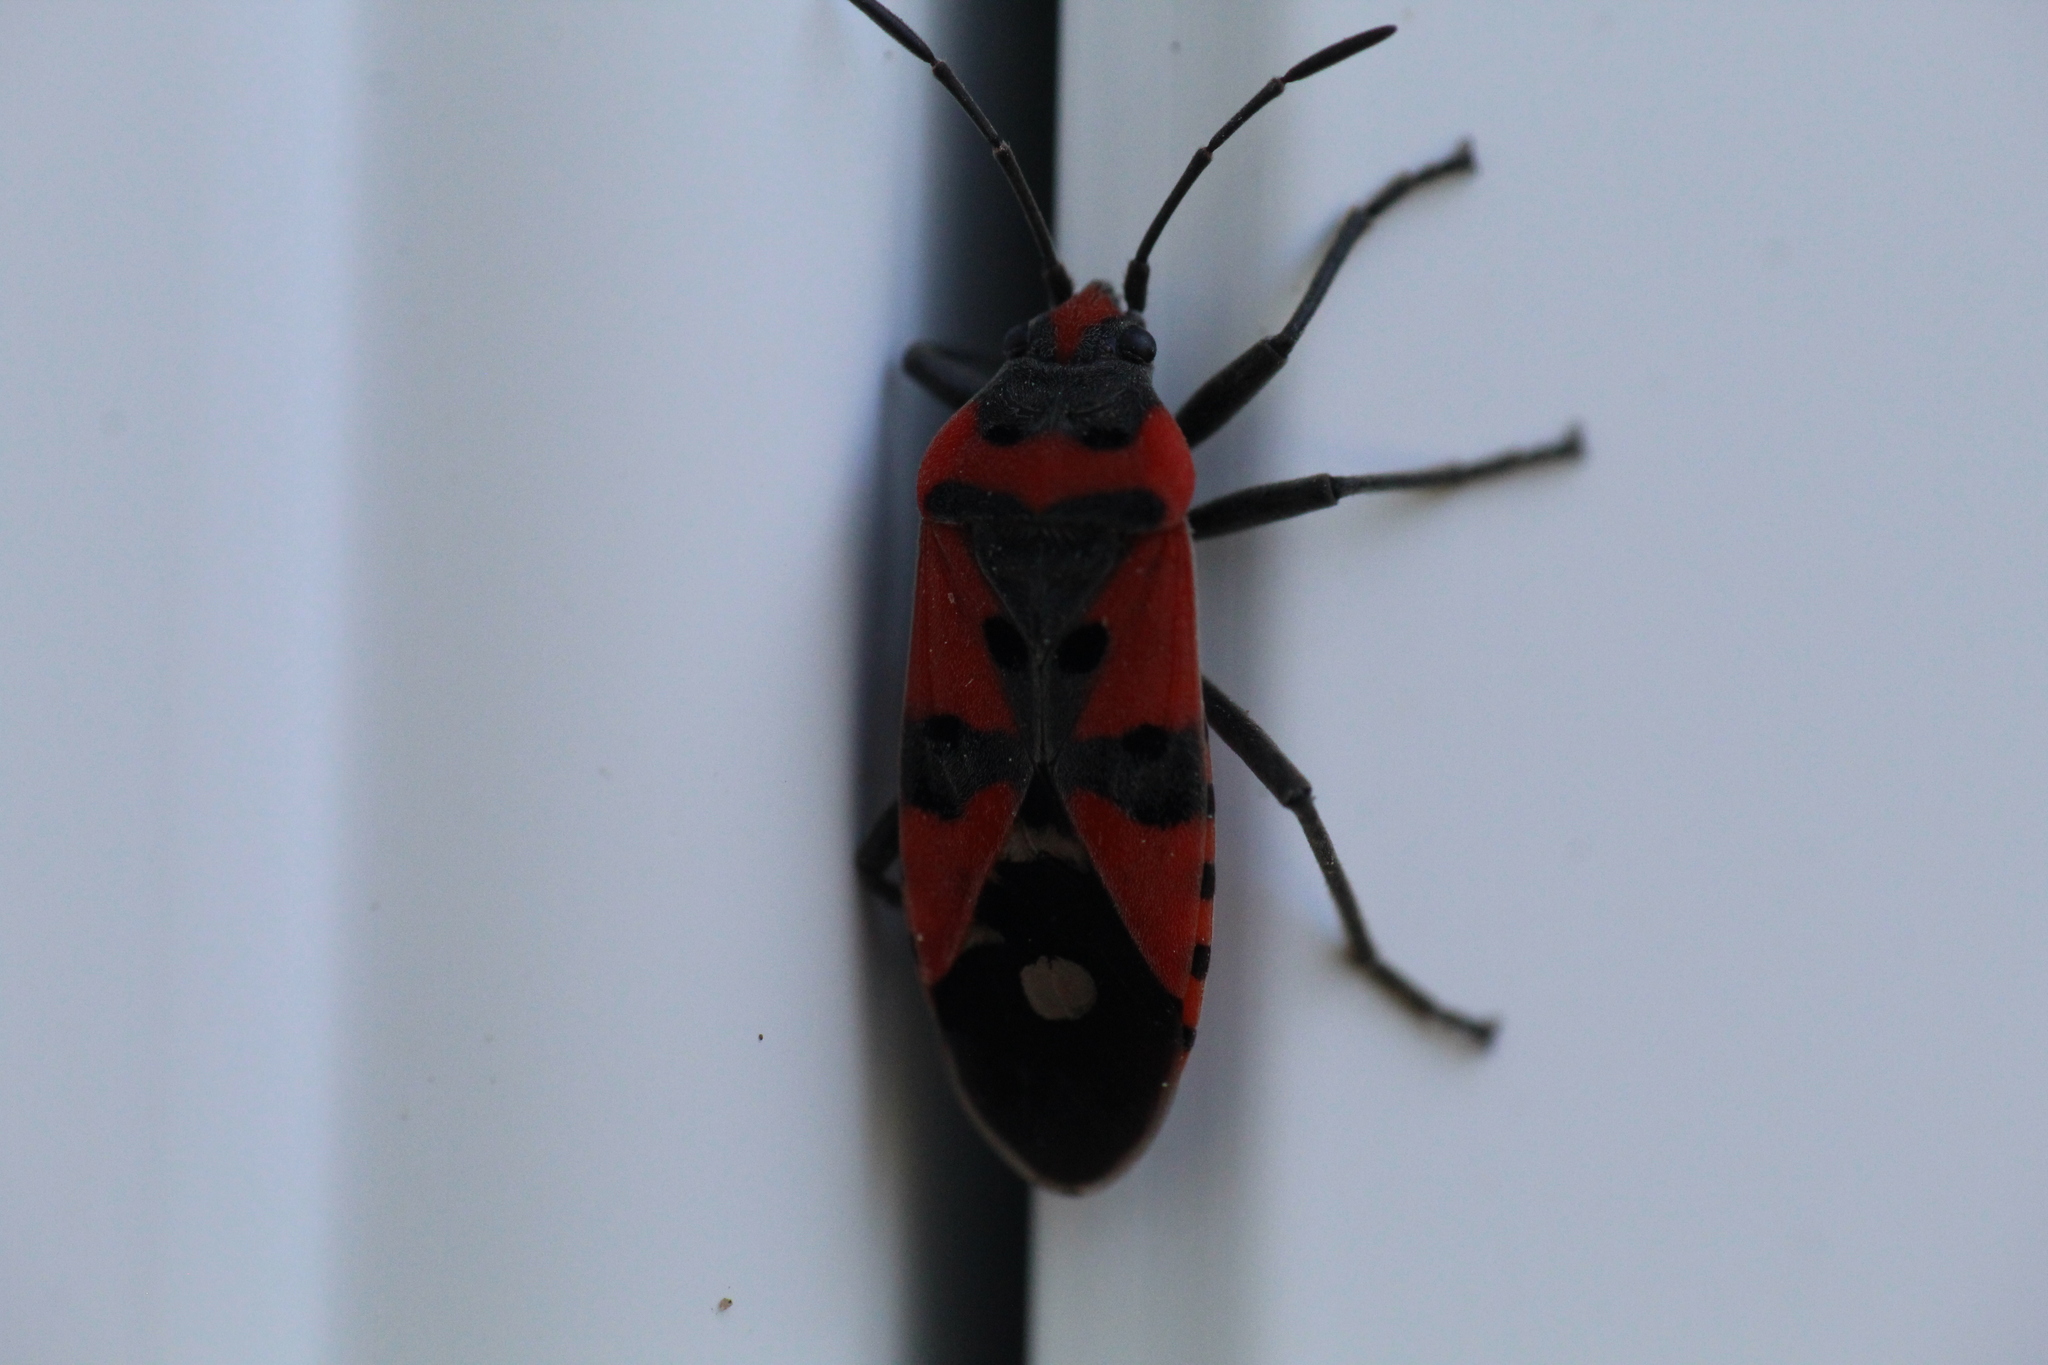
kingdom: Animalia
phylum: Arthropoda
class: Insecta
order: Hemiptera
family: Lygaeidae
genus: Lygaeus
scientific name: Lygaeus equestris
